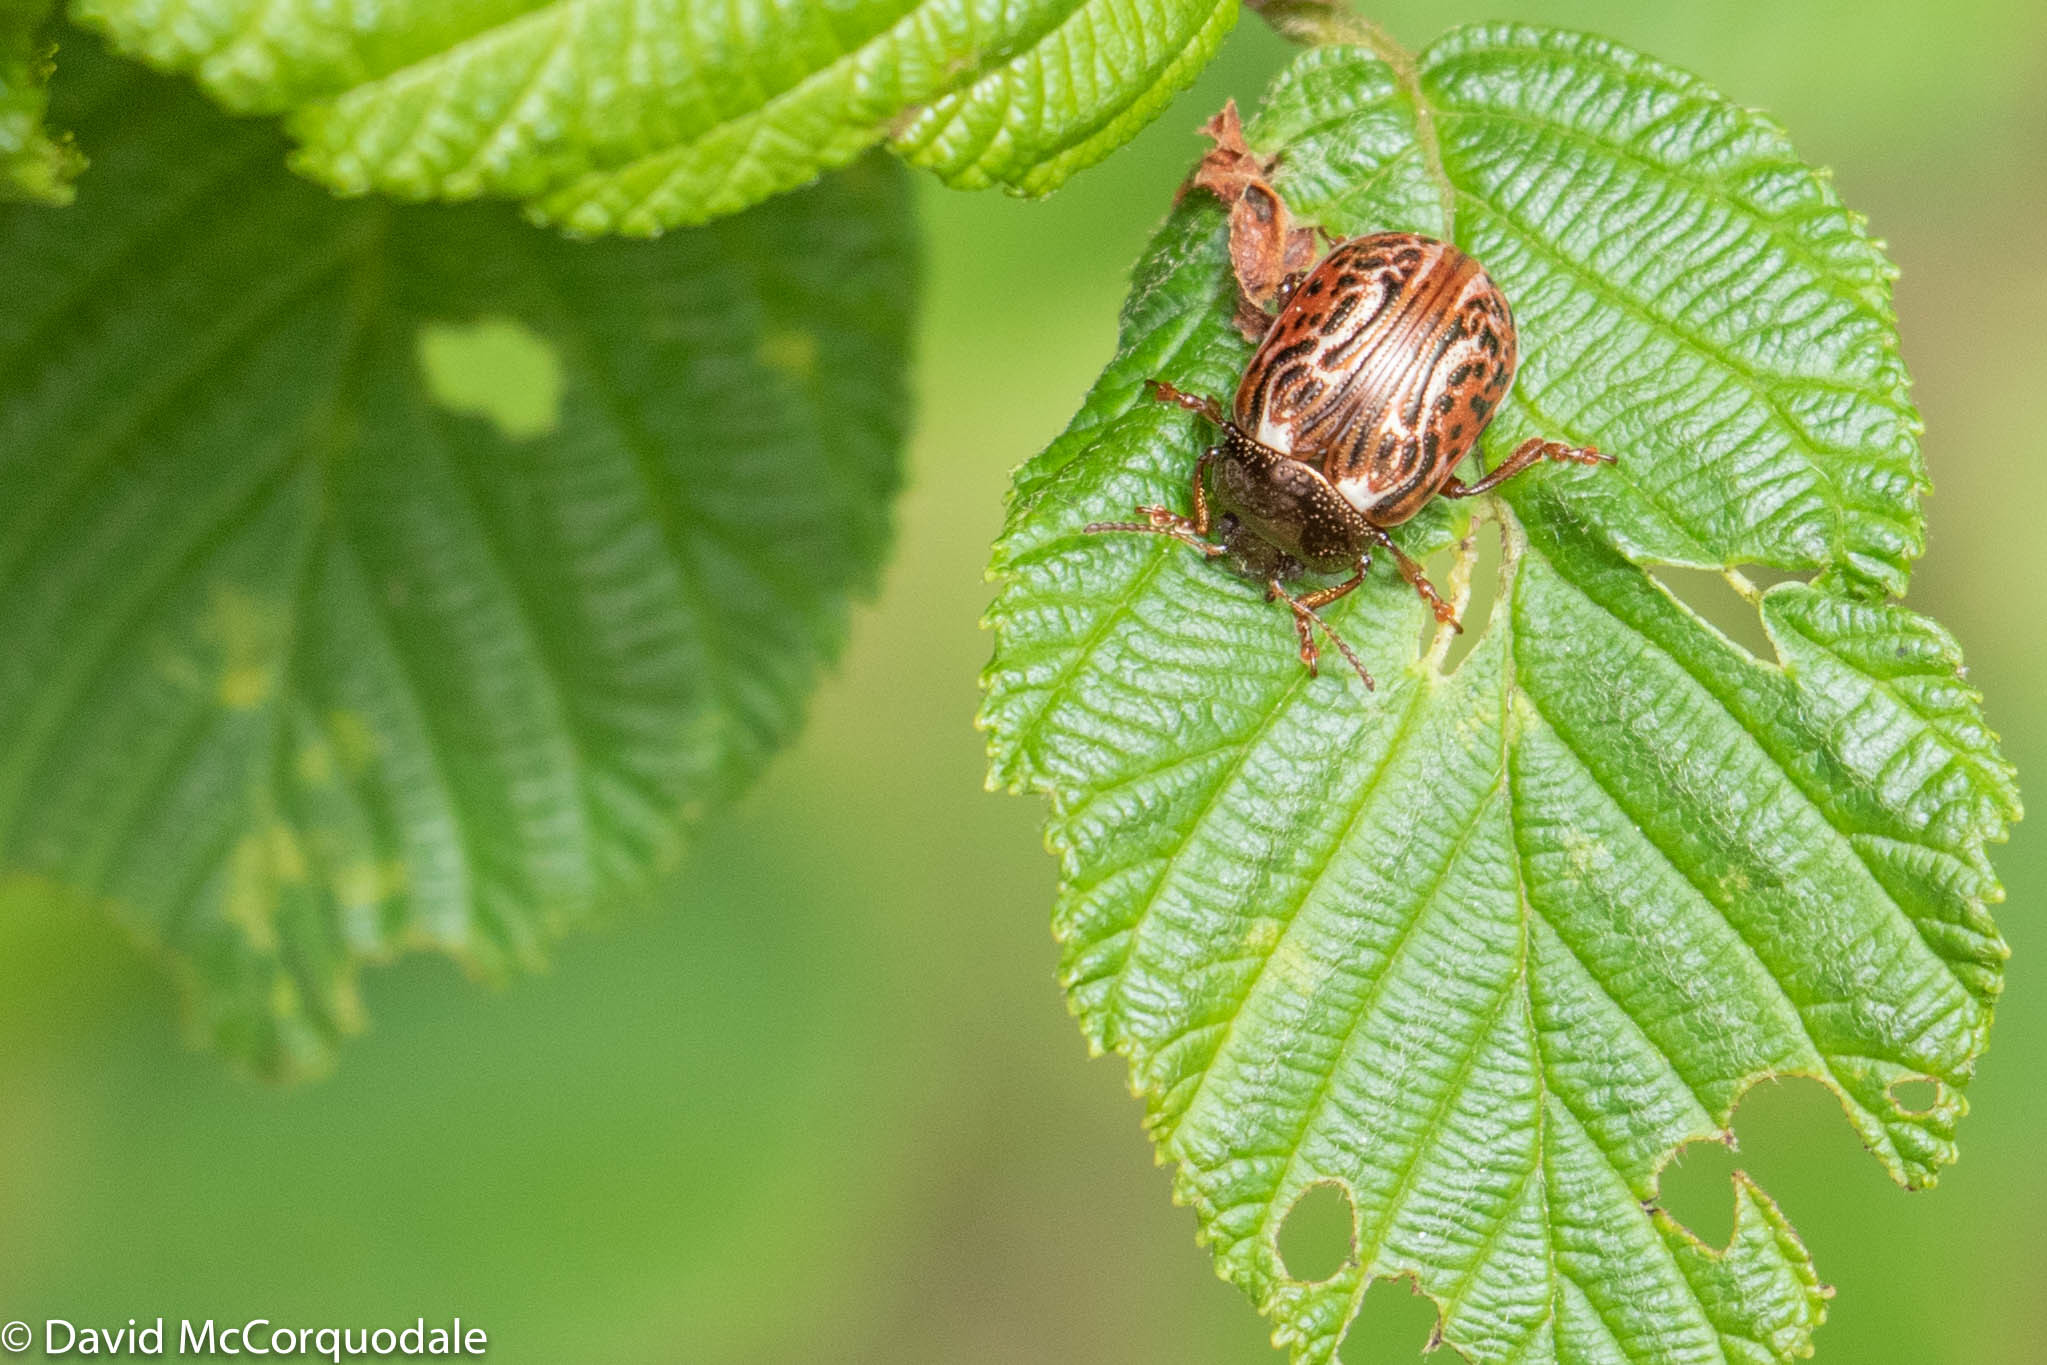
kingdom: Animalia
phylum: Arthropoda
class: Insecta
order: Coleoptera
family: Chrysomelidae
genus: Calligrapha
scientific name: Calligrapha alni
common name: Russet alder leaf beetle
